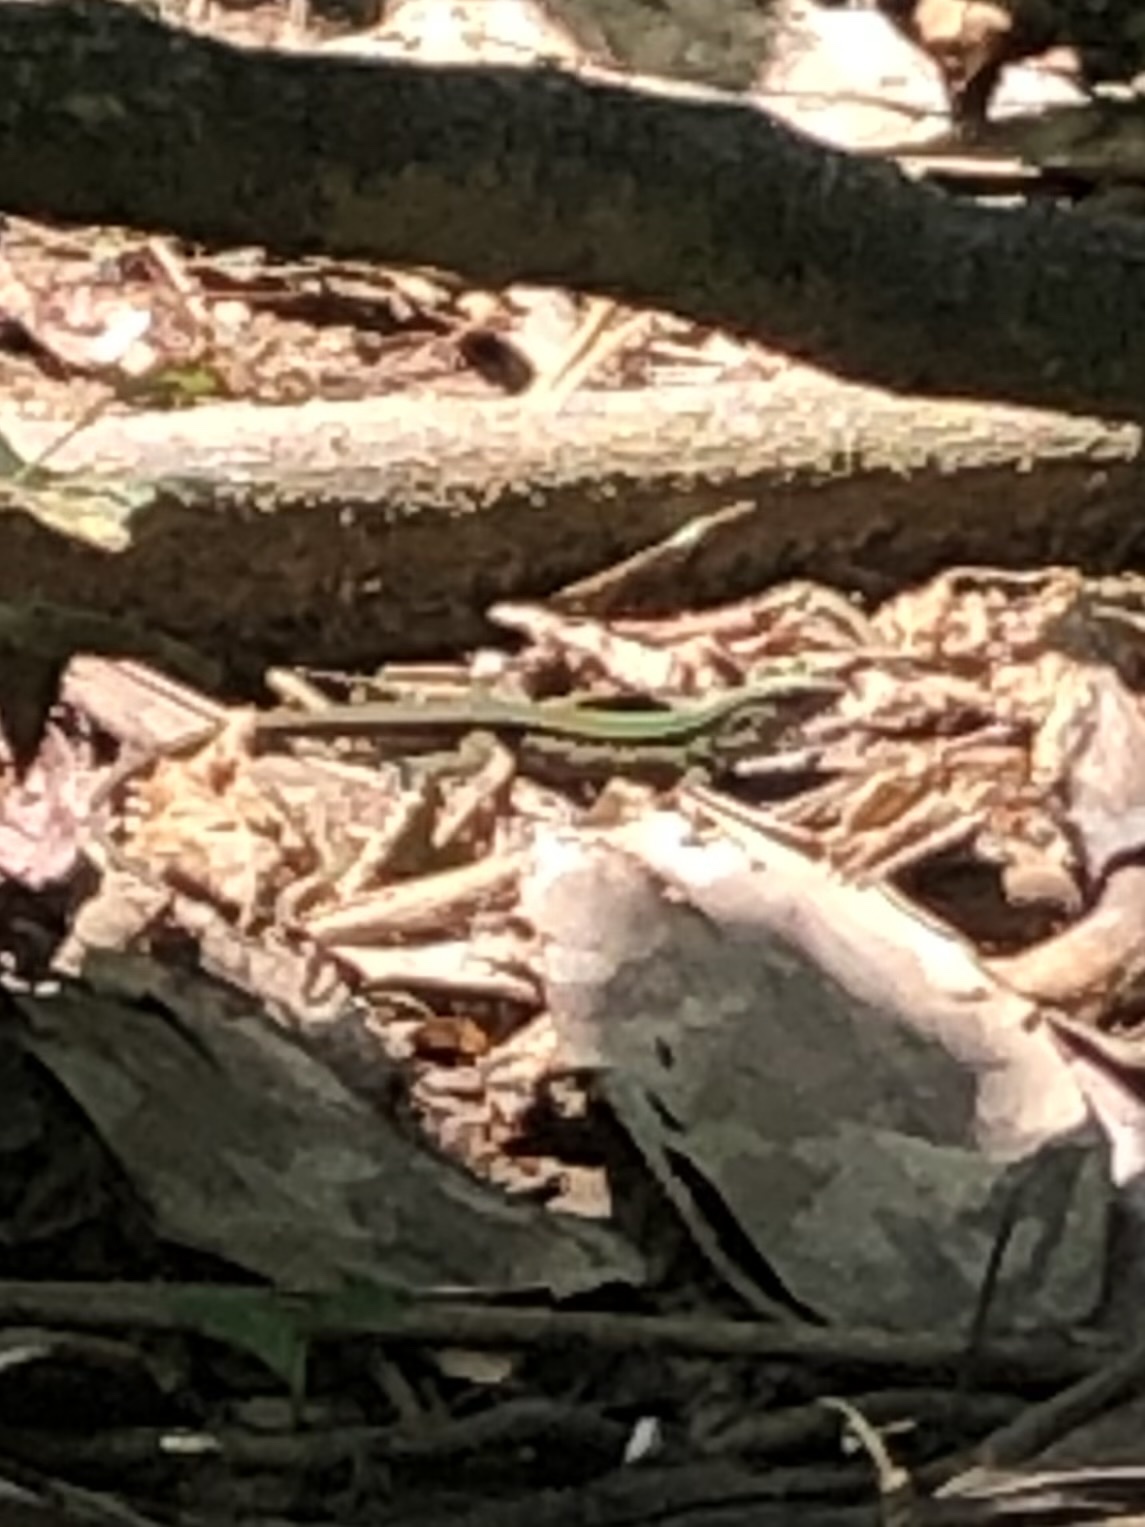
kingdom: Animalia
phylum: Chordata
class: Squamata
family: Teiidae
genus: Kentropyx
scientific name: Kentropyx altamazonica
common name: Cocha whiptail
